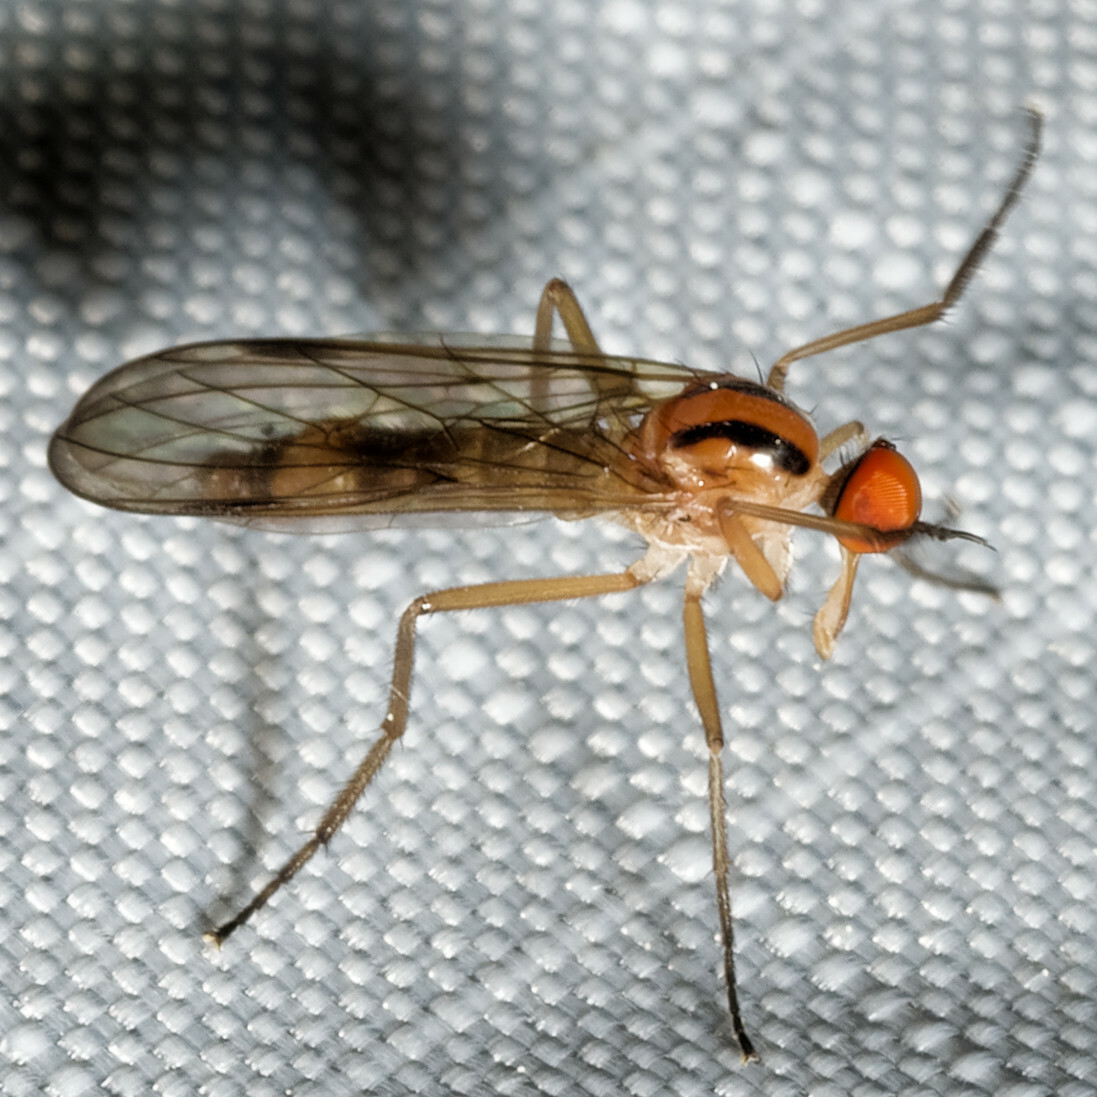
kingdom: Animalia
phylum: Arthropoda
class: Insecta
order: Diptera
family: Empididae
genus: Rhamphomyia
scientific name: Rhamphomyia vittata
